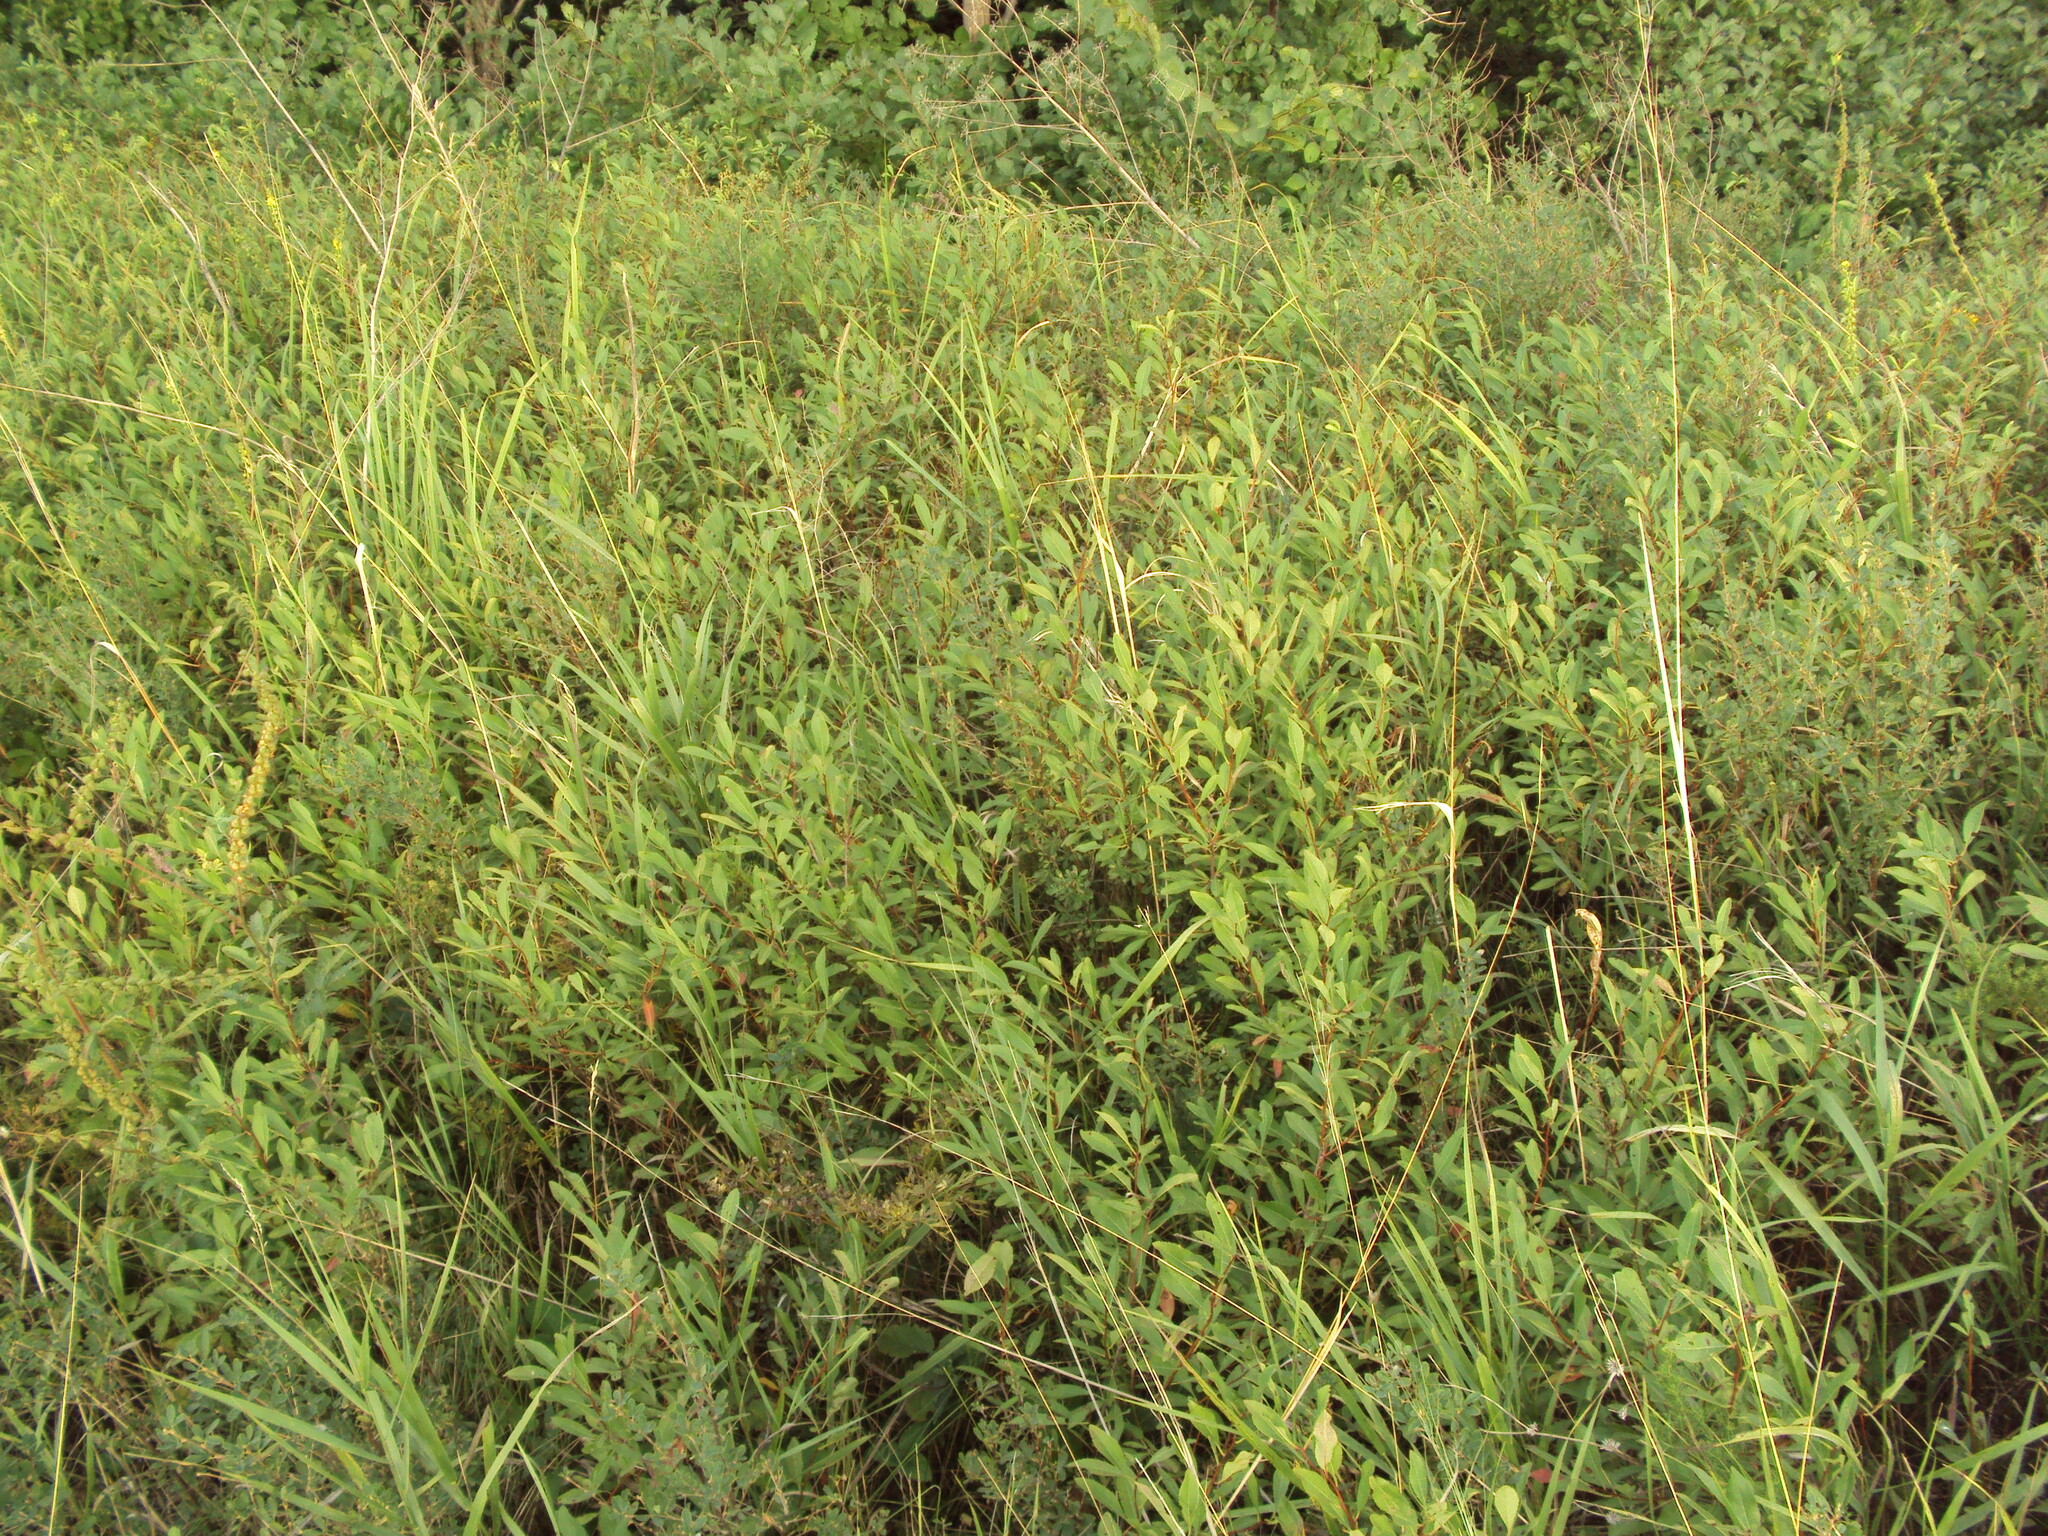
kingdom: Plantae
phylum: Tracheophyta
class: Magnoliopsida
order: Rosales
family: Rosaceae
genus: Prunus
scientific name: Prunus tenella
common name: Dwarf russian almond
